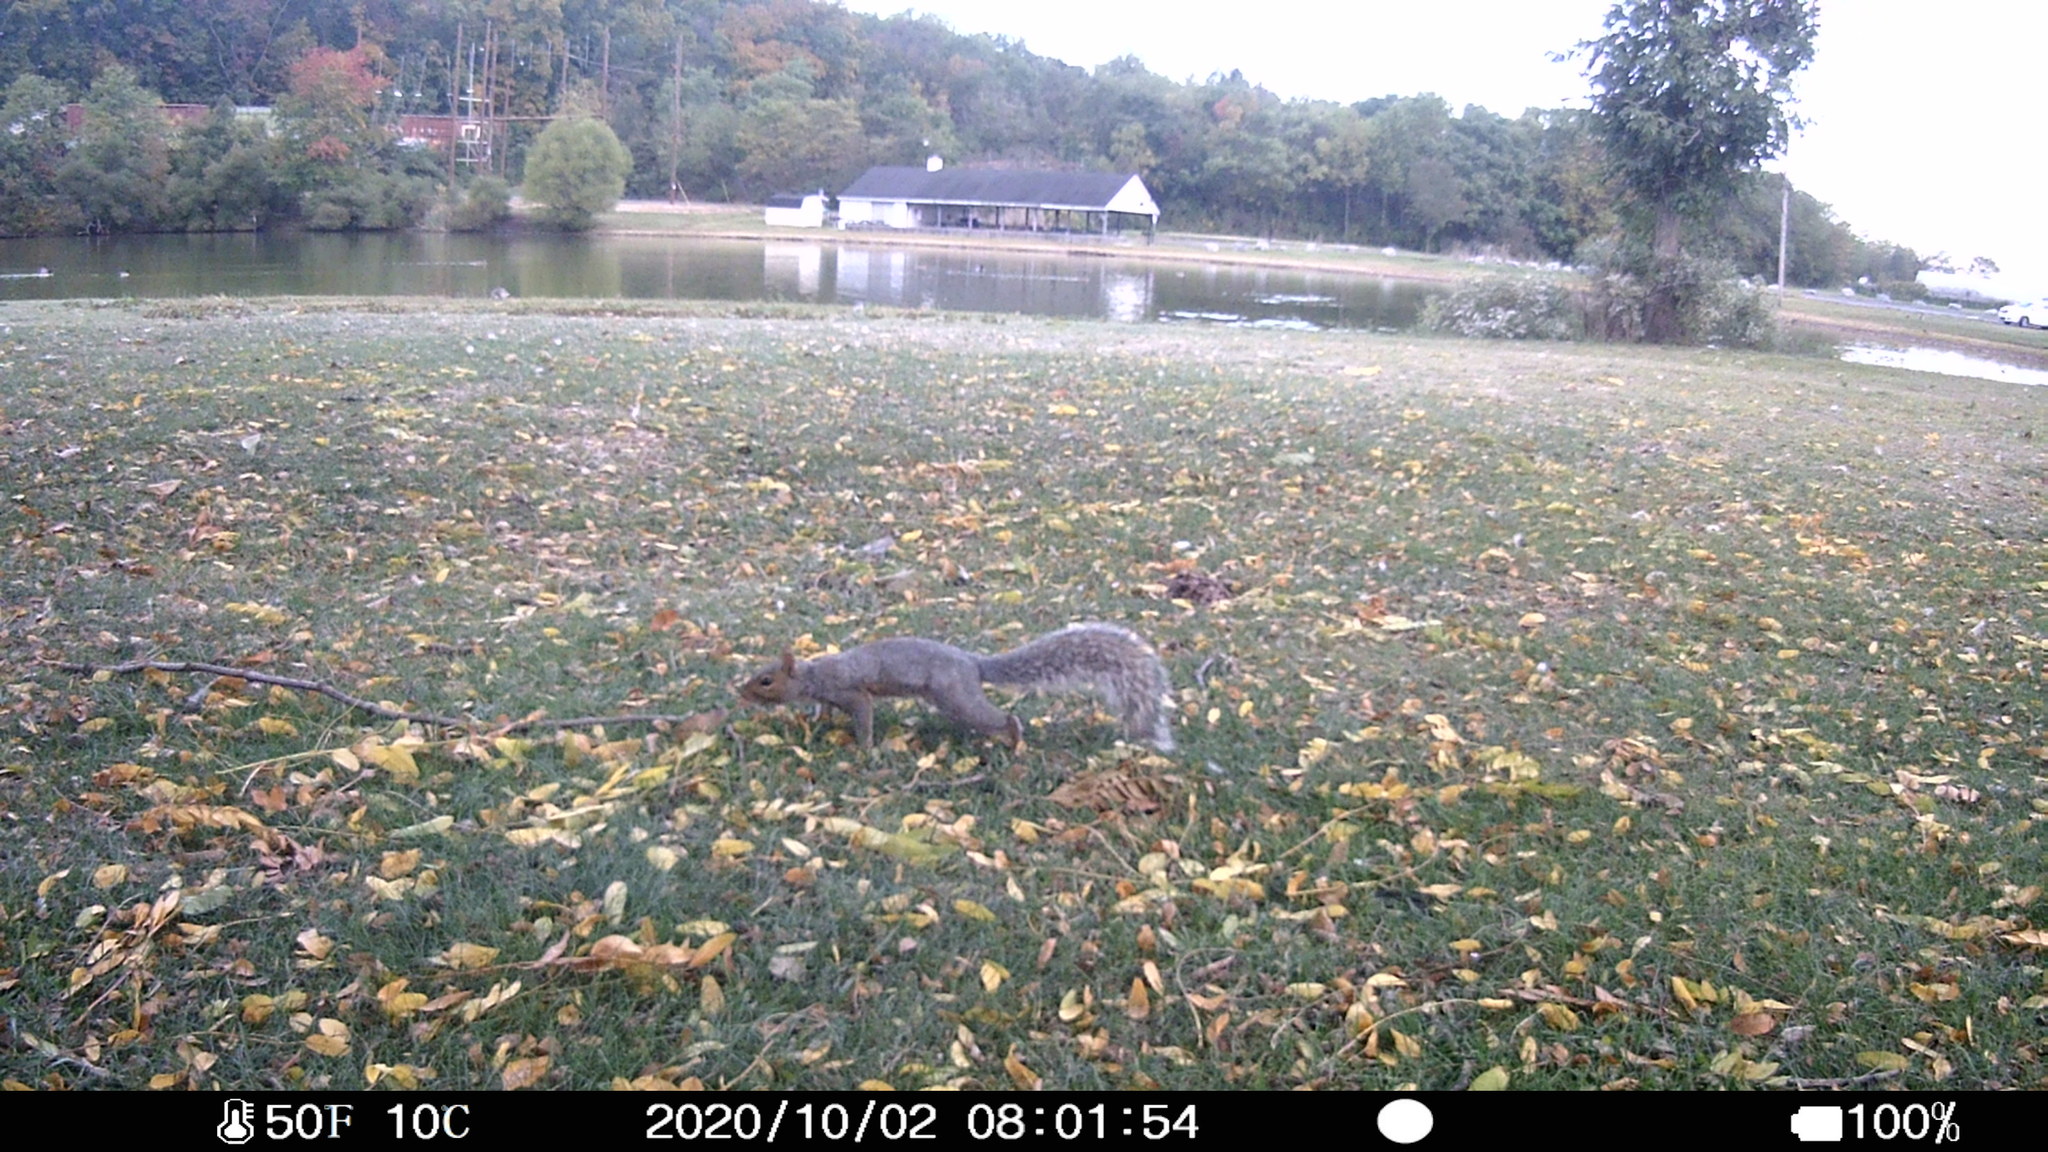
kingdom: Animalia
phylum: Chordata
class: Mammalia
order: Rodentia
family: Sciuridae
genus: Sciurus
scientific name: Sciurus carolinensis
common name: Eastern gray squirrel
